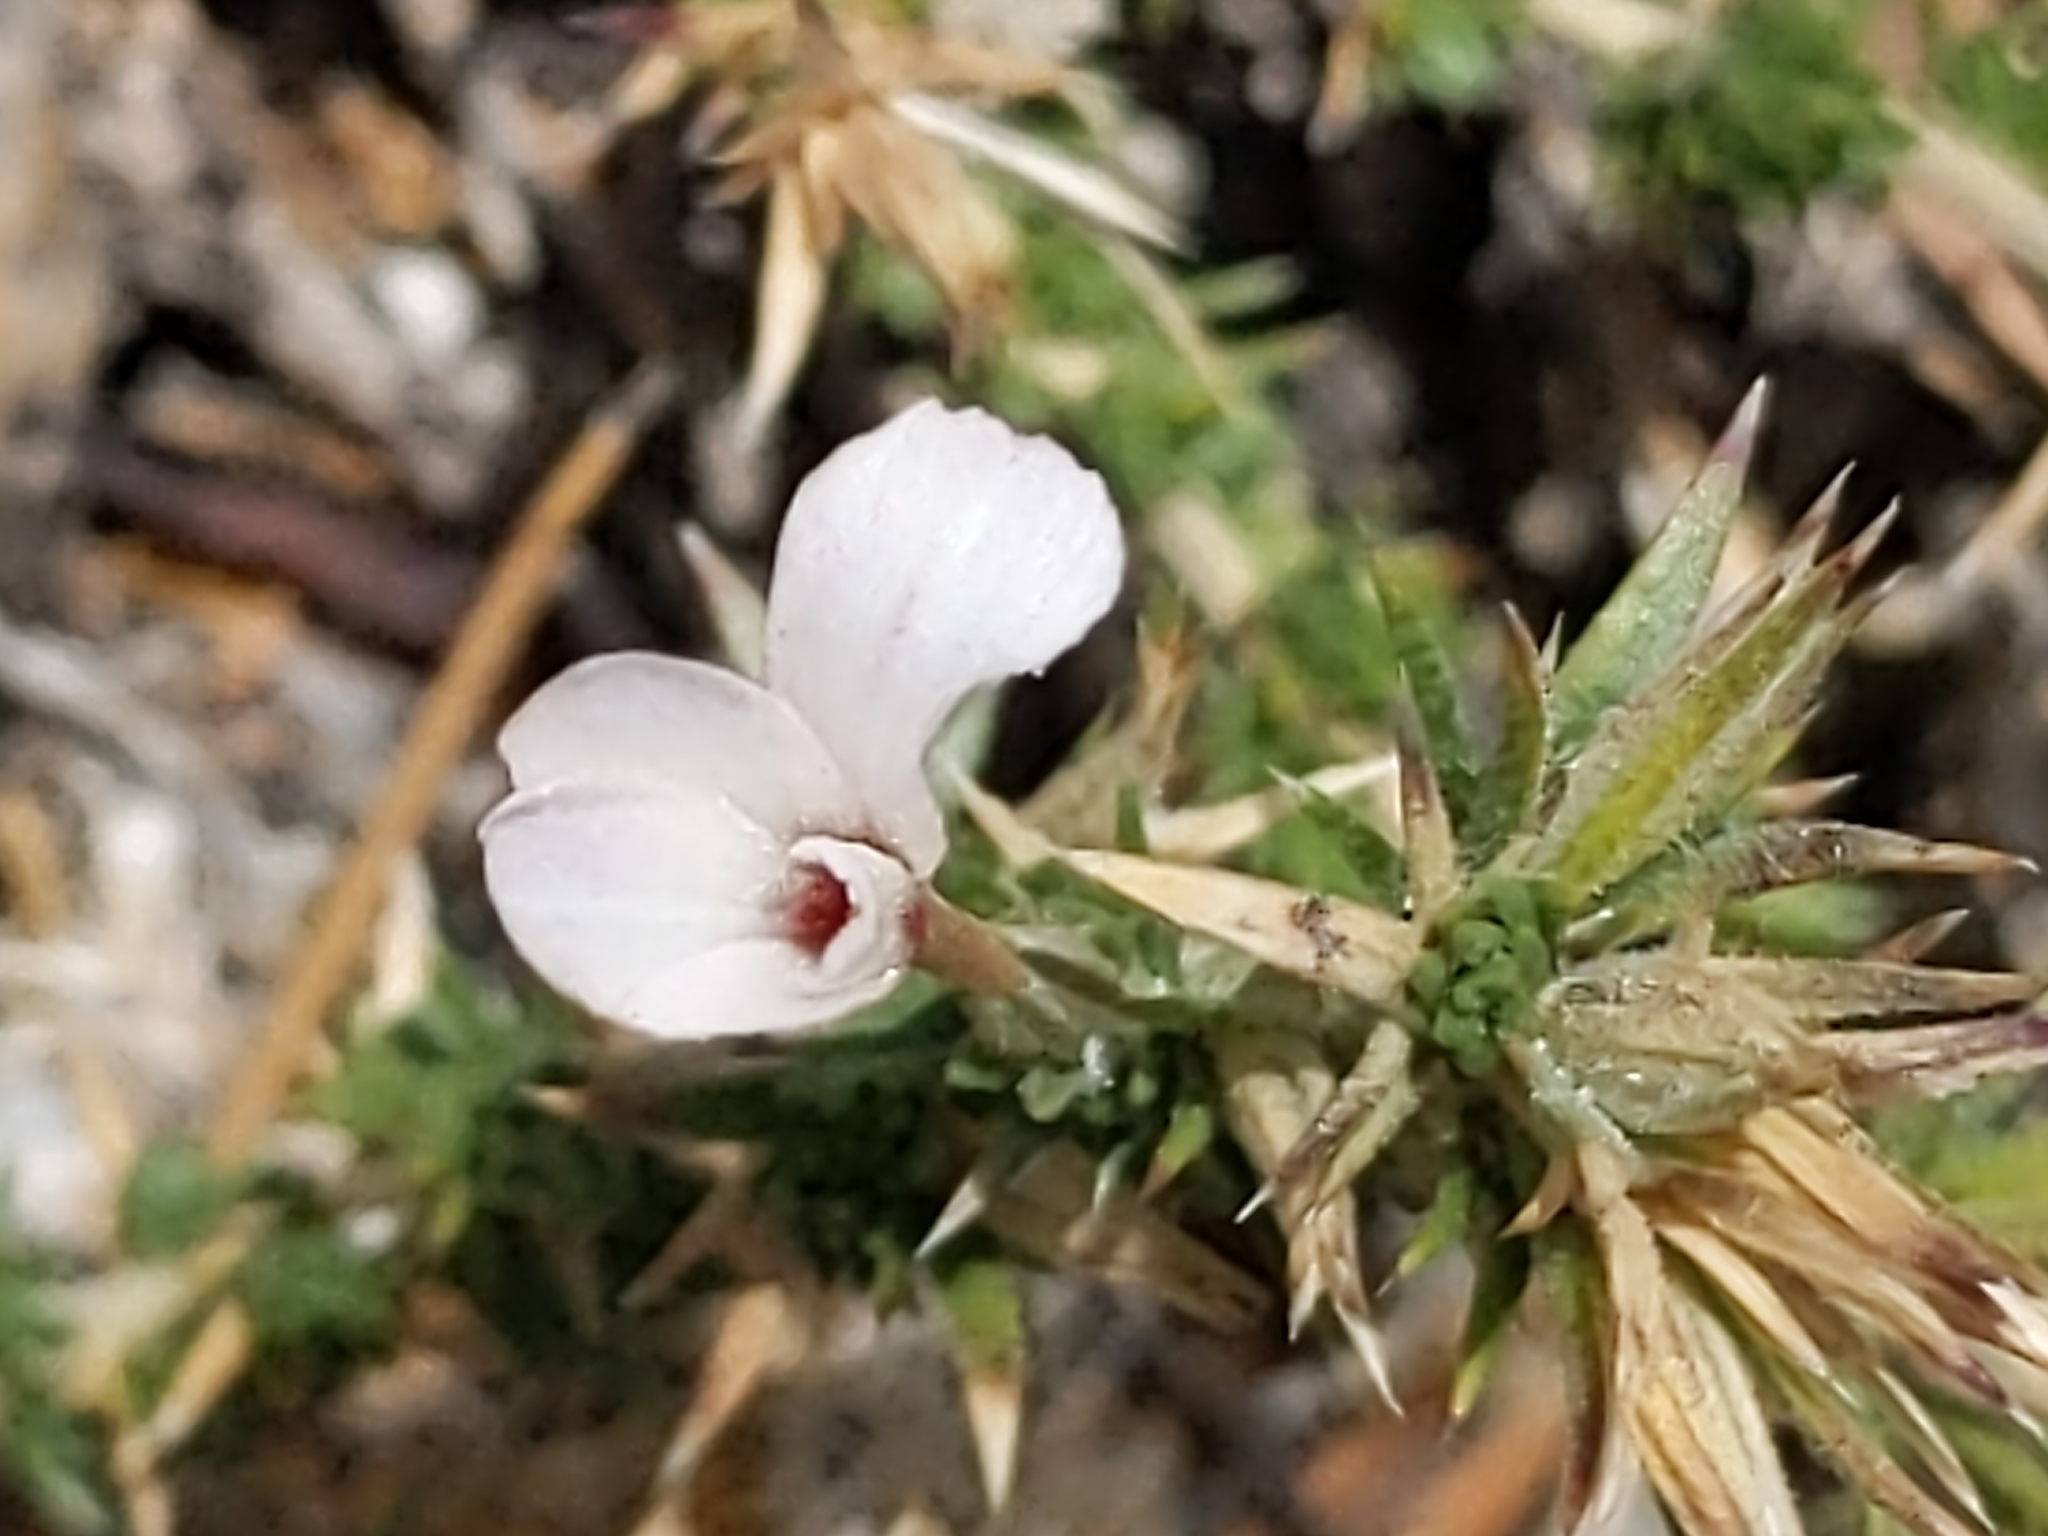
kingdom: Plantae
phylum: Tracheophyta
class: Magnoliopsida
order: Ericales
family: Polemoniaceae
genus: Linanthus
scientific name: Linanthus pungens
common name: Granite prickly phlox
